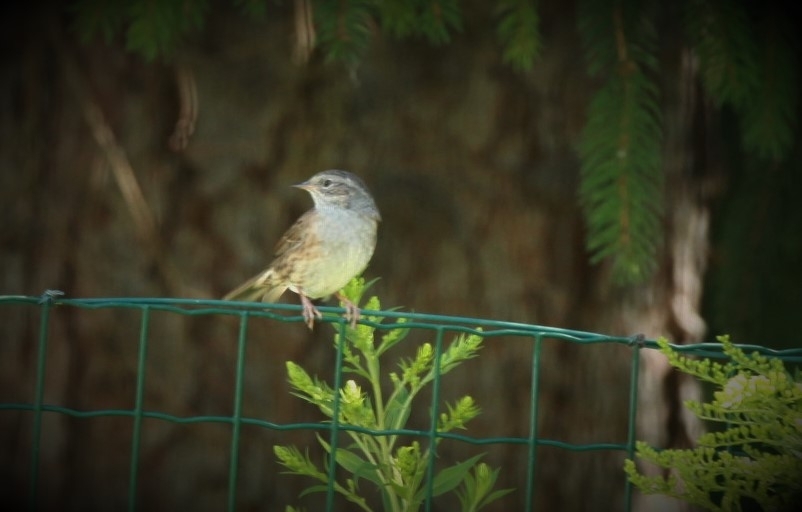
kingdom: Animalia
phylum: Chordata
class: Aves
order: Passeriformes
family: Prunellidae
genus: Prunella
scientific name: Prunella modularis
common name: Dunnock
